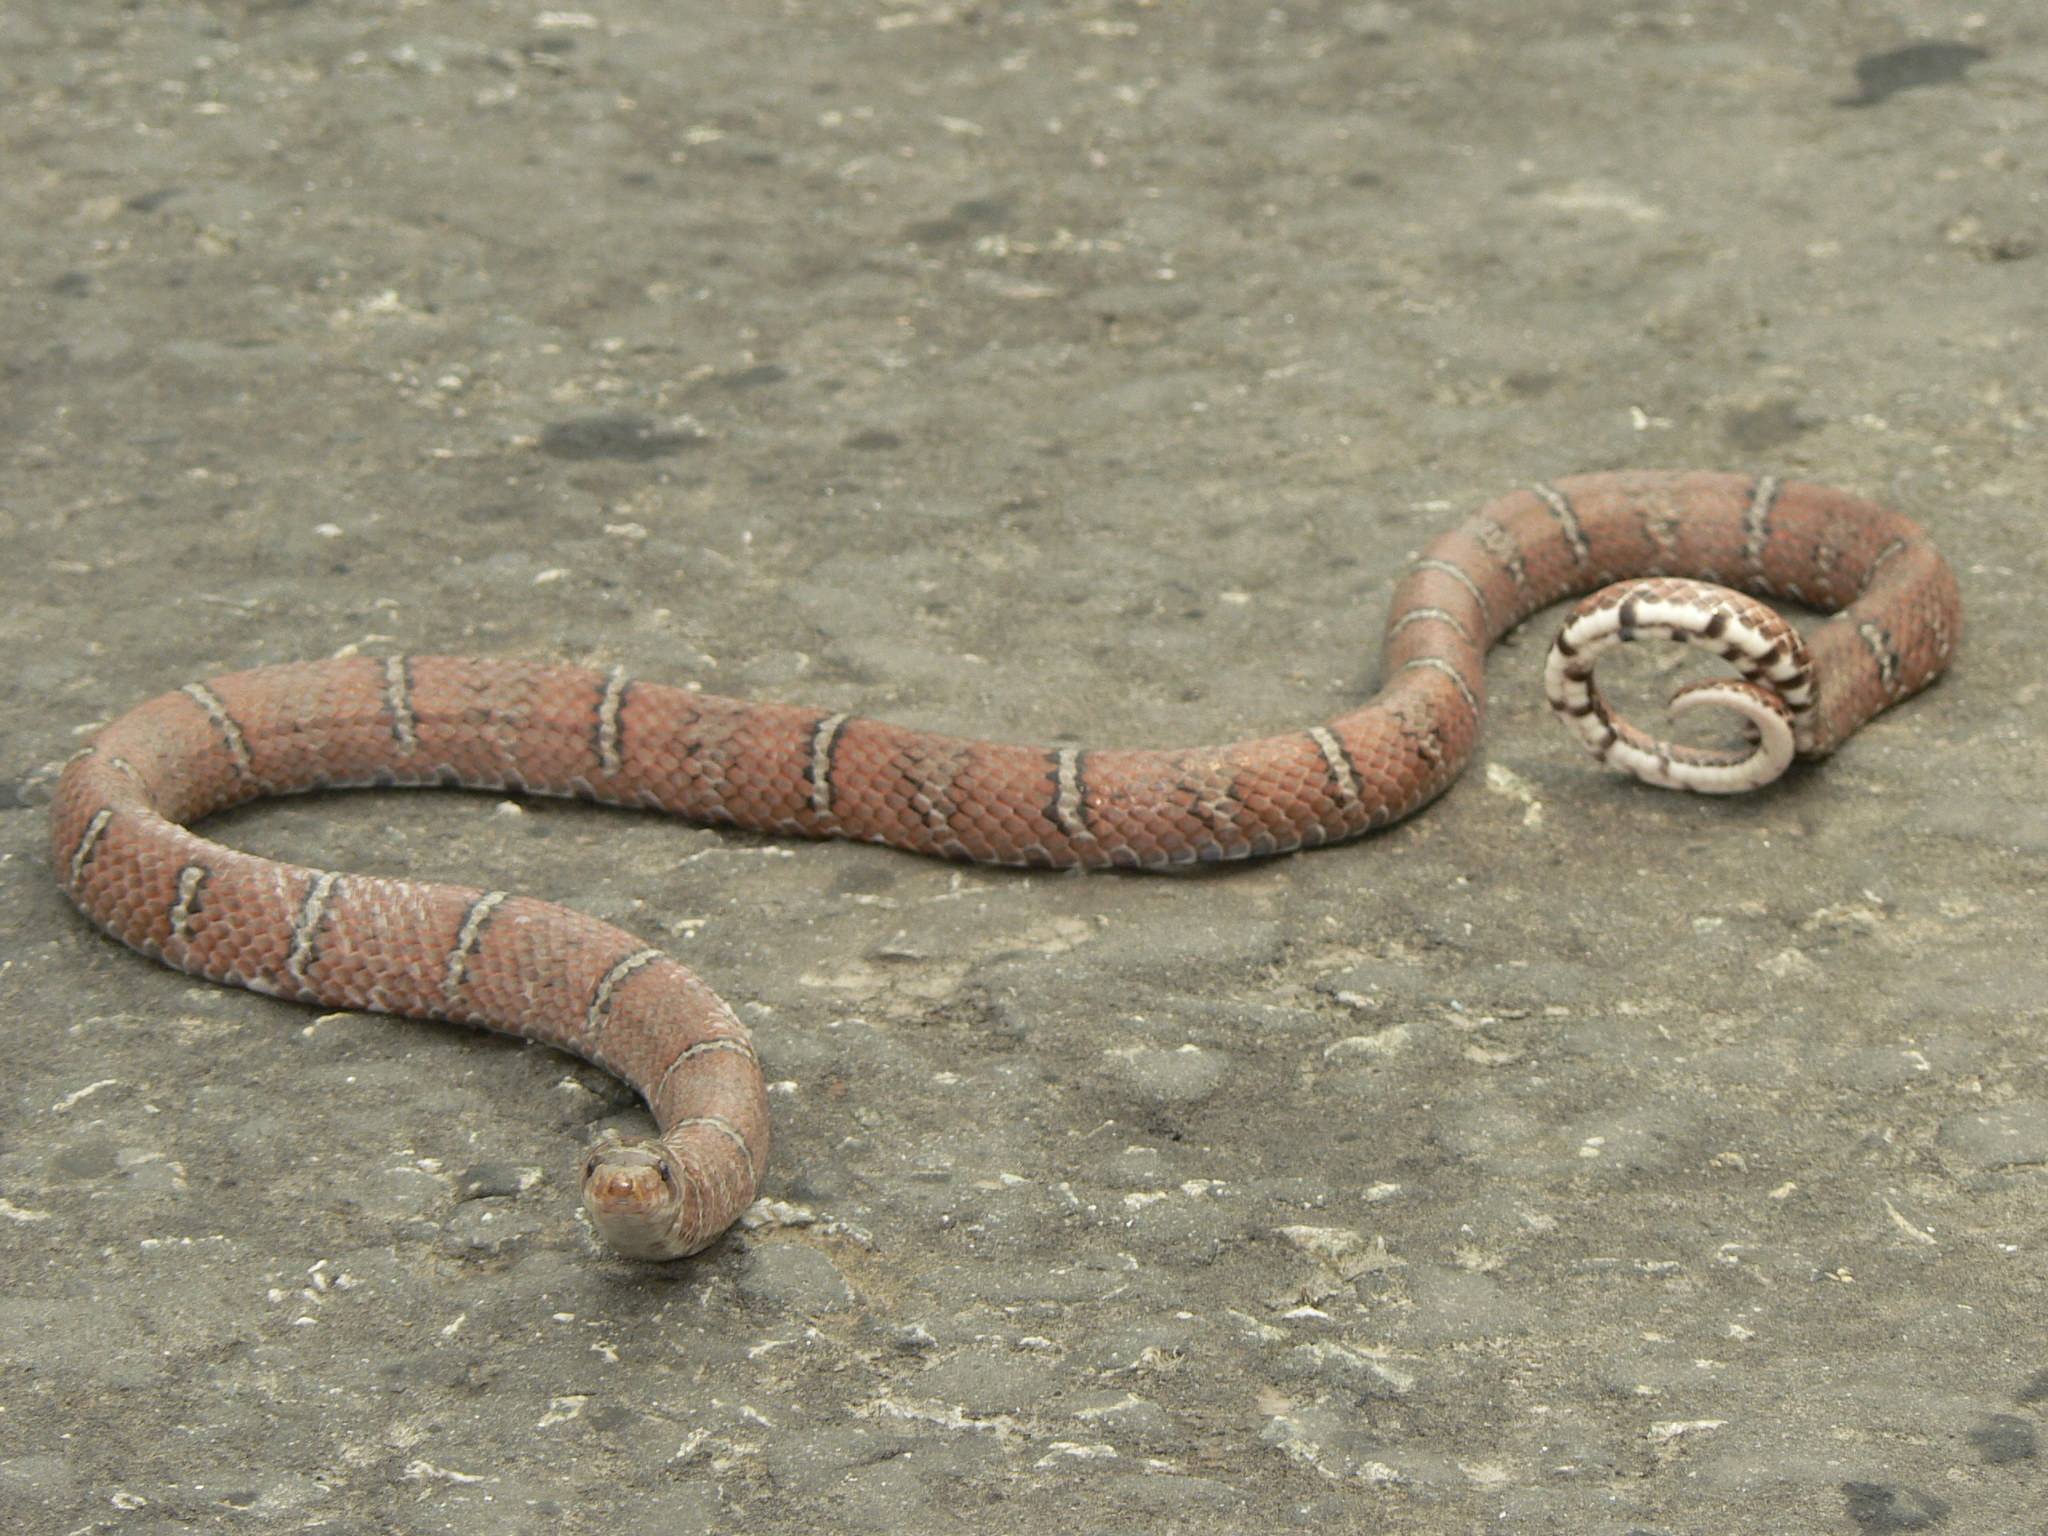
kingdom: Animalia
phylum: Chordata
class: Squamata
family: Colubridae
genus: Oligodon
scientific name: Oligodon albocinctus
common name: Light-barred kukri snake
